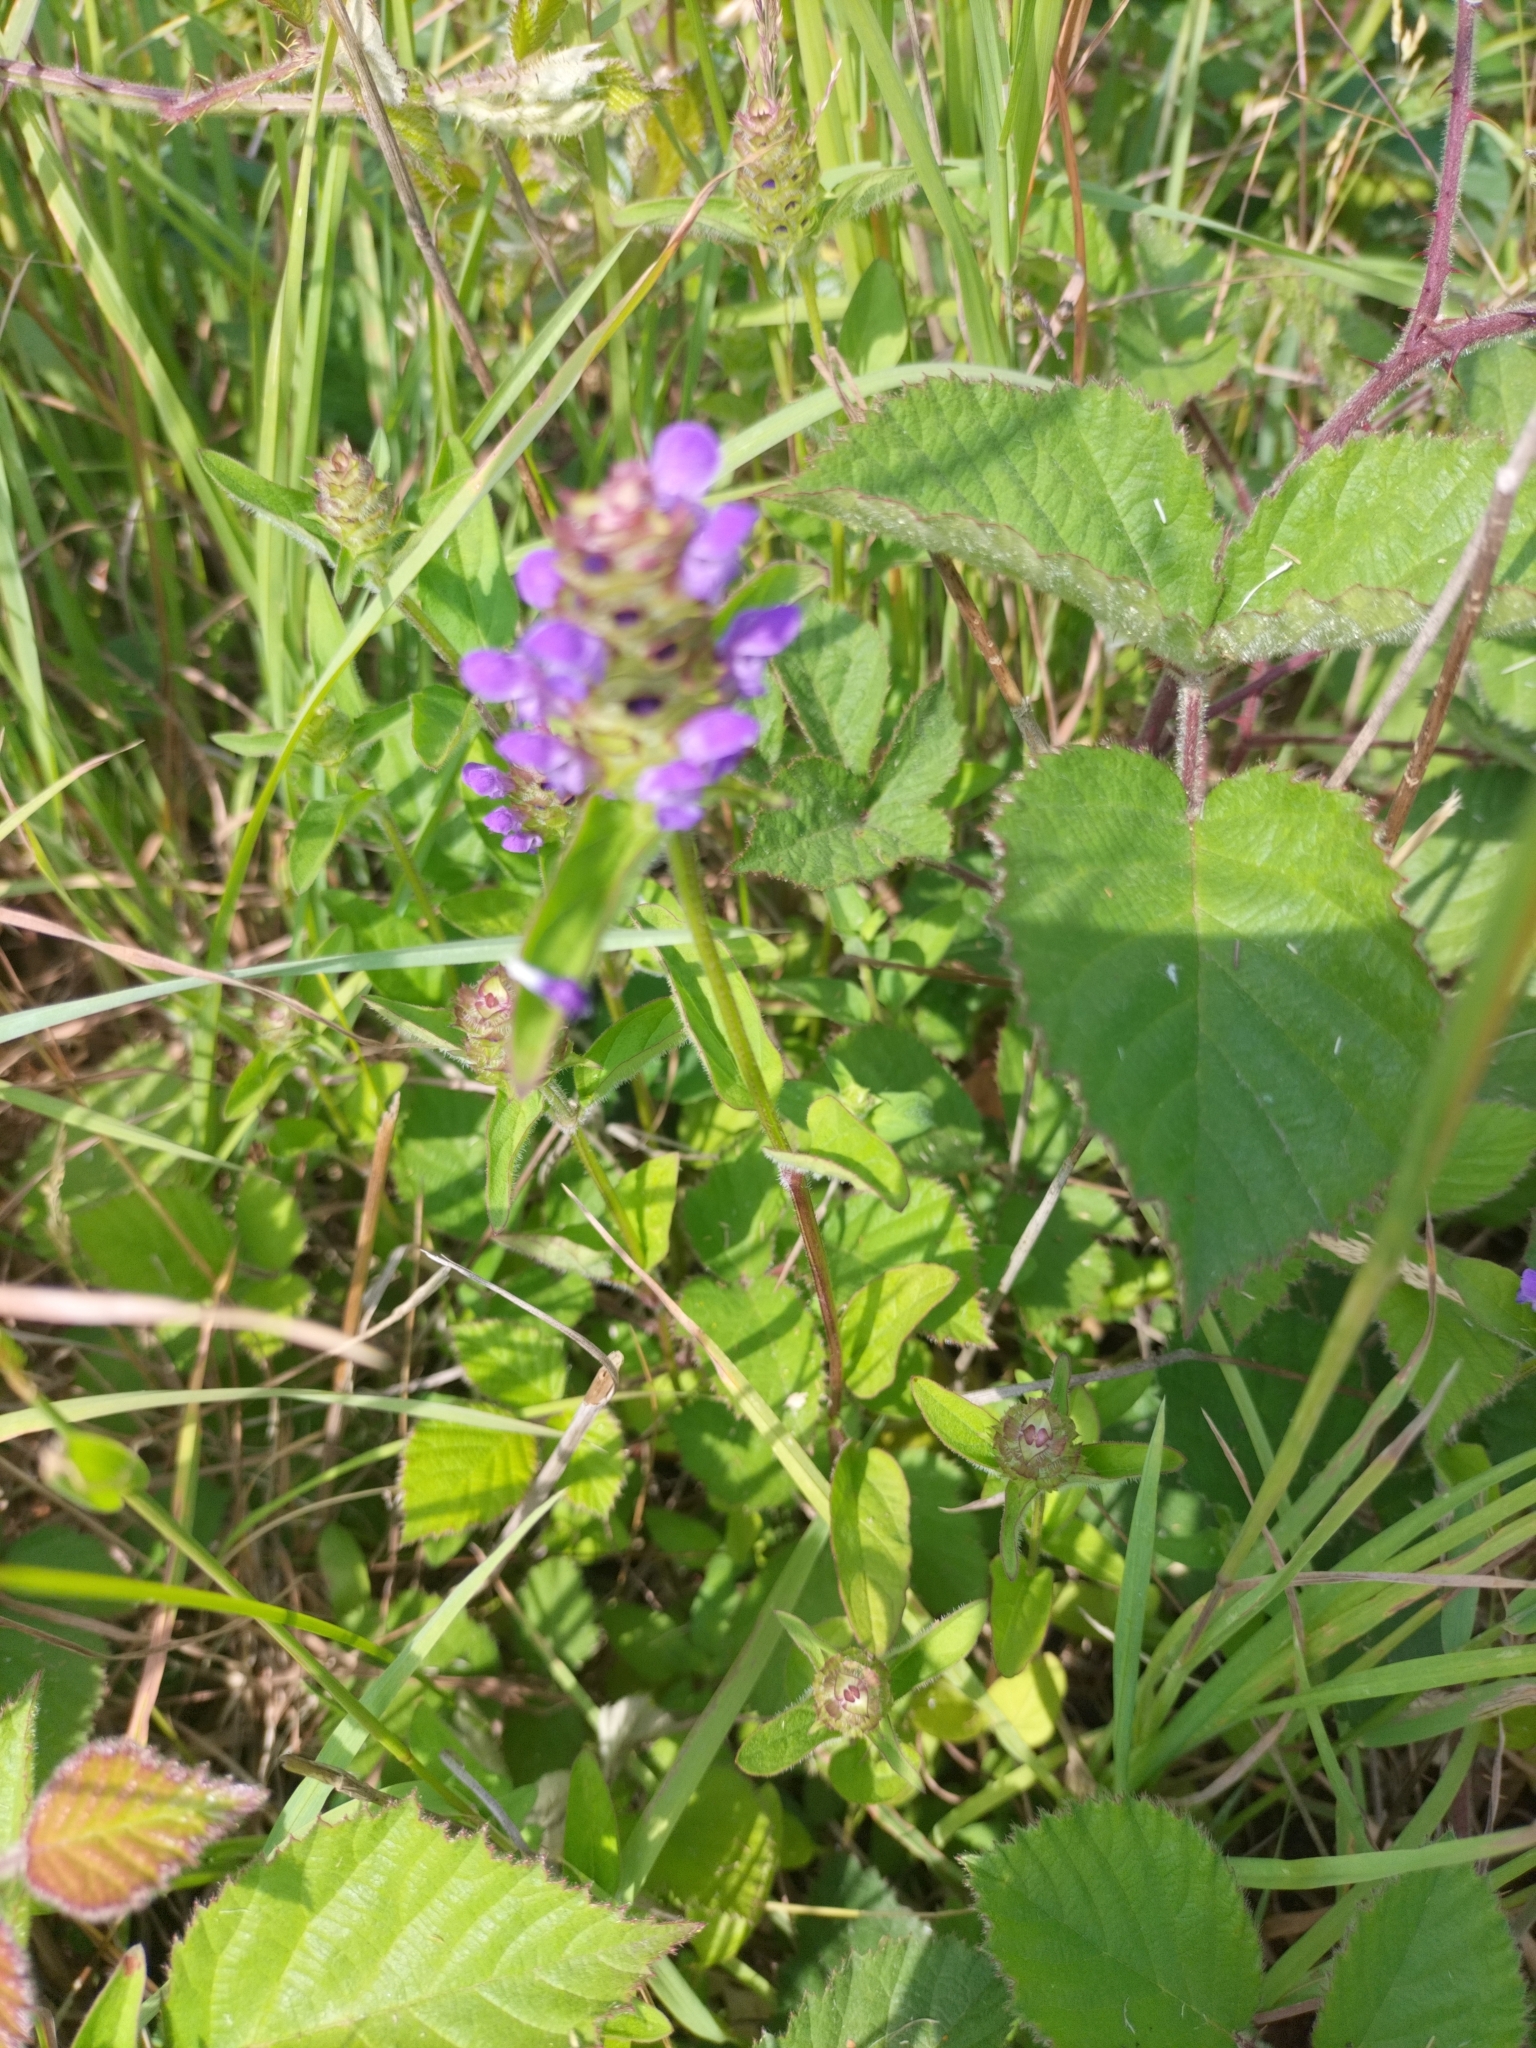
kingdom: Plantae
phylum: Tracheophyta
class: Magnoliopsida
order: Lamiales
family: Lamiaceae
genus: Prunella
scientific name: Prunella vulgaris
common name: Heal-all
